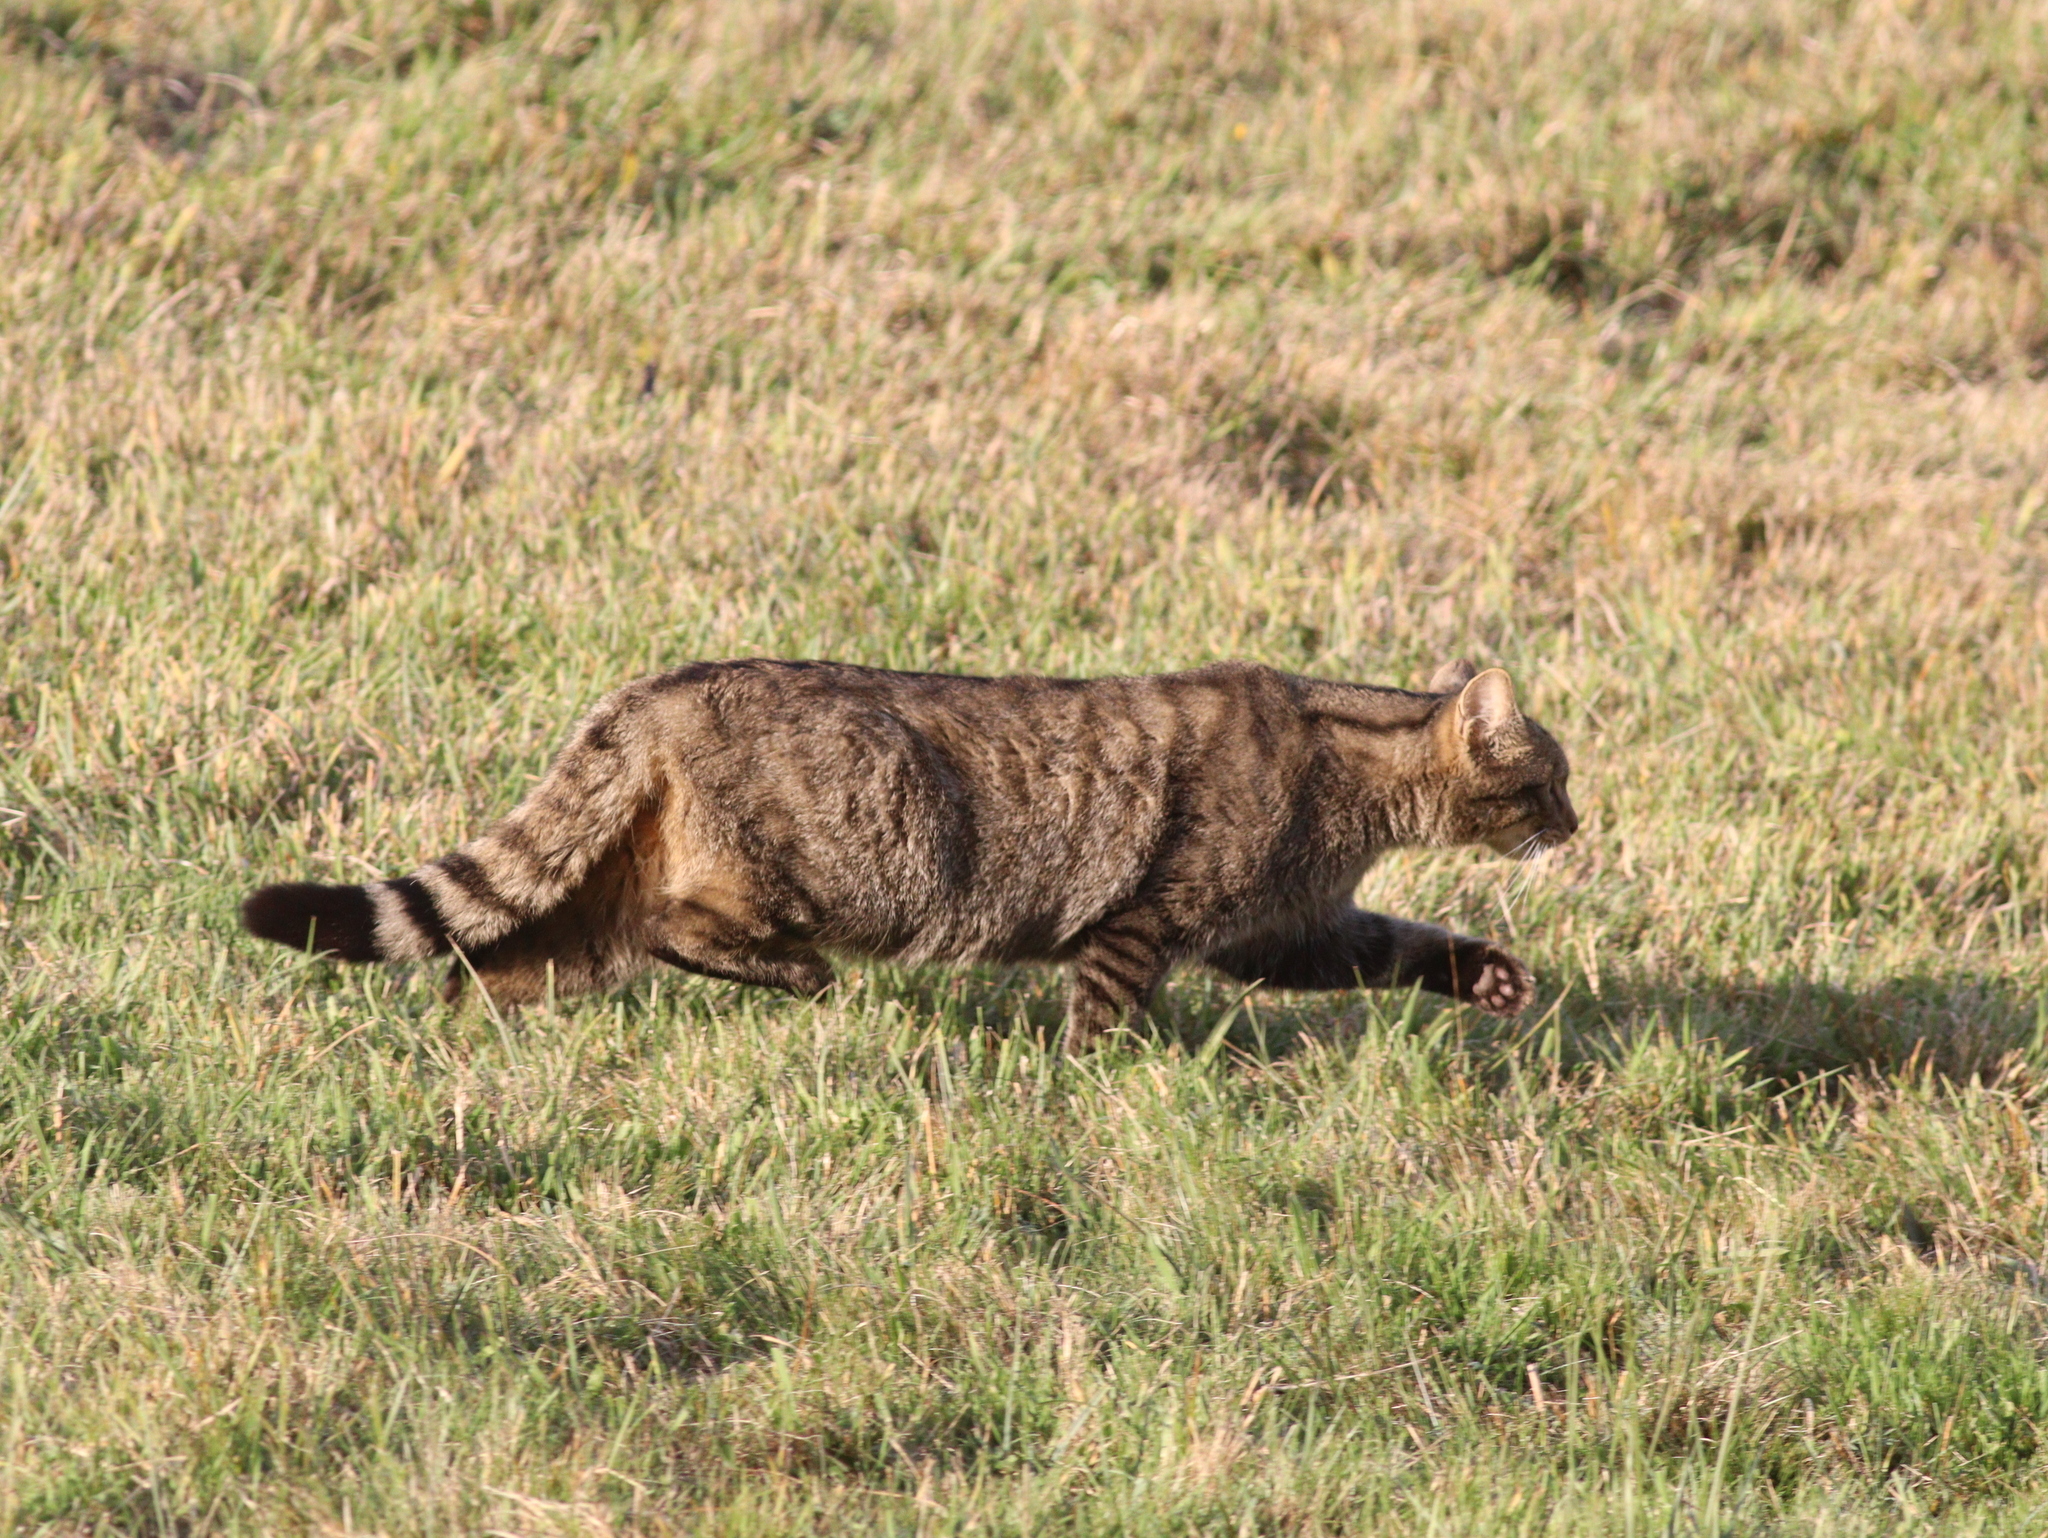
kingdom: Animalia
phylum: Chordata
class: Mammalia
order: Carnivora
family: Felidae
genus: Felis
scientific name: Felis silvestris
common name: Wildcat
